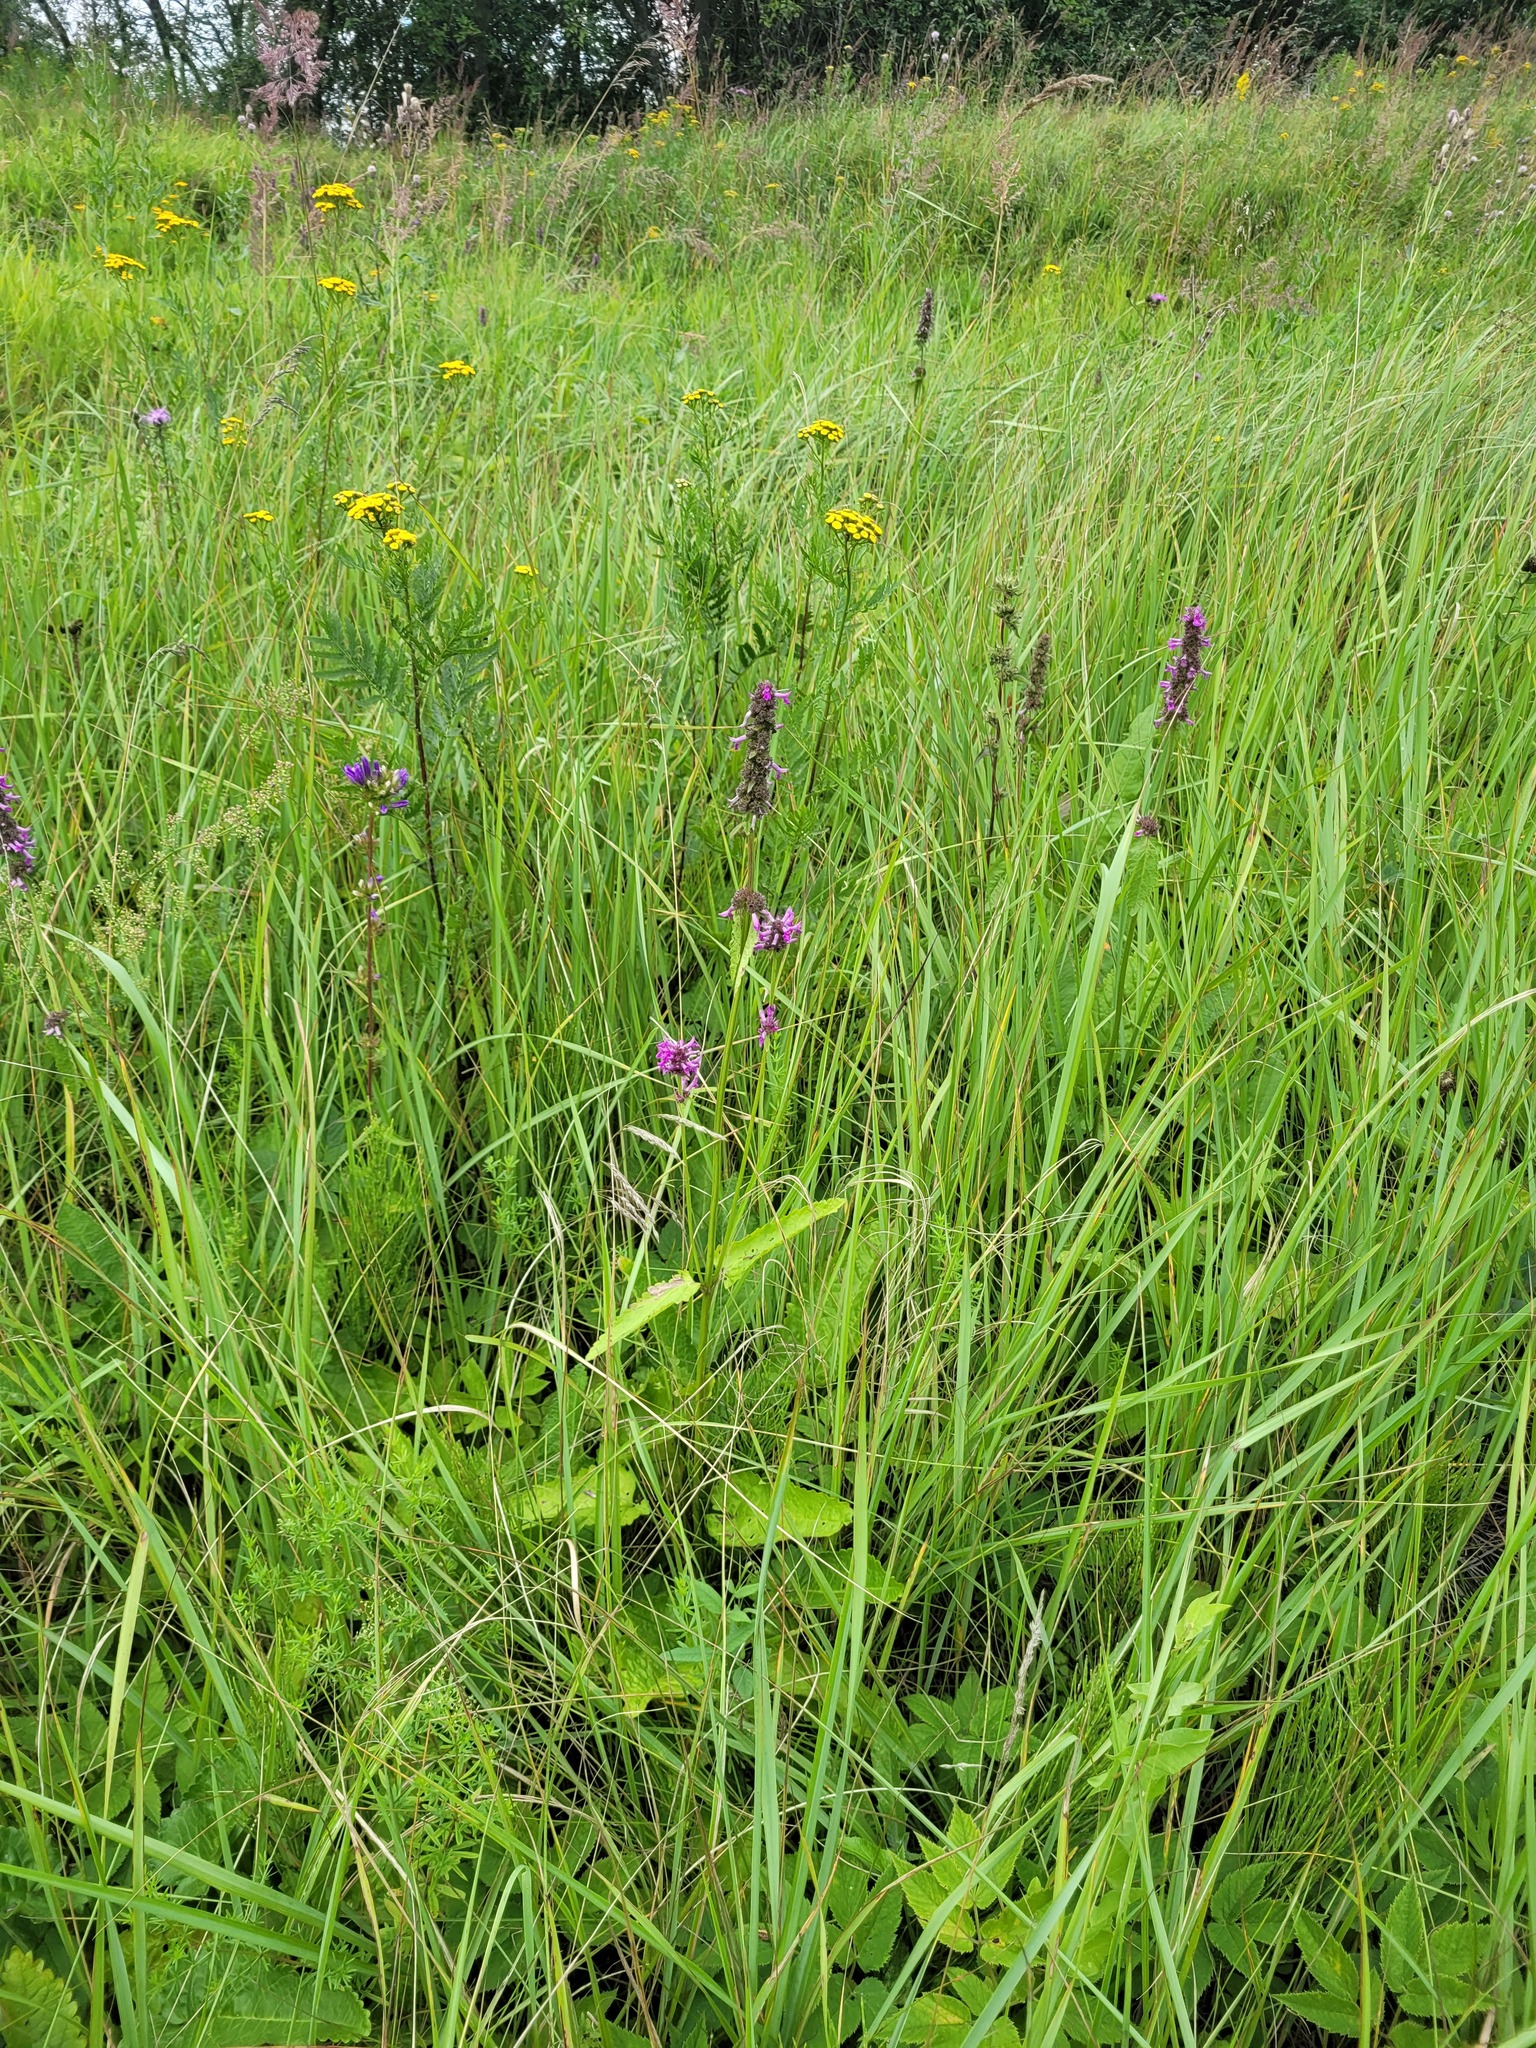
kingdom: Plantae
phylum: Tracheophyta
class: Magnoliopsida
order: Lamiales
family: Lamiaceae
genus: Betonica
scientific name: Betonica officinalis
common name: Bishop's-wort
